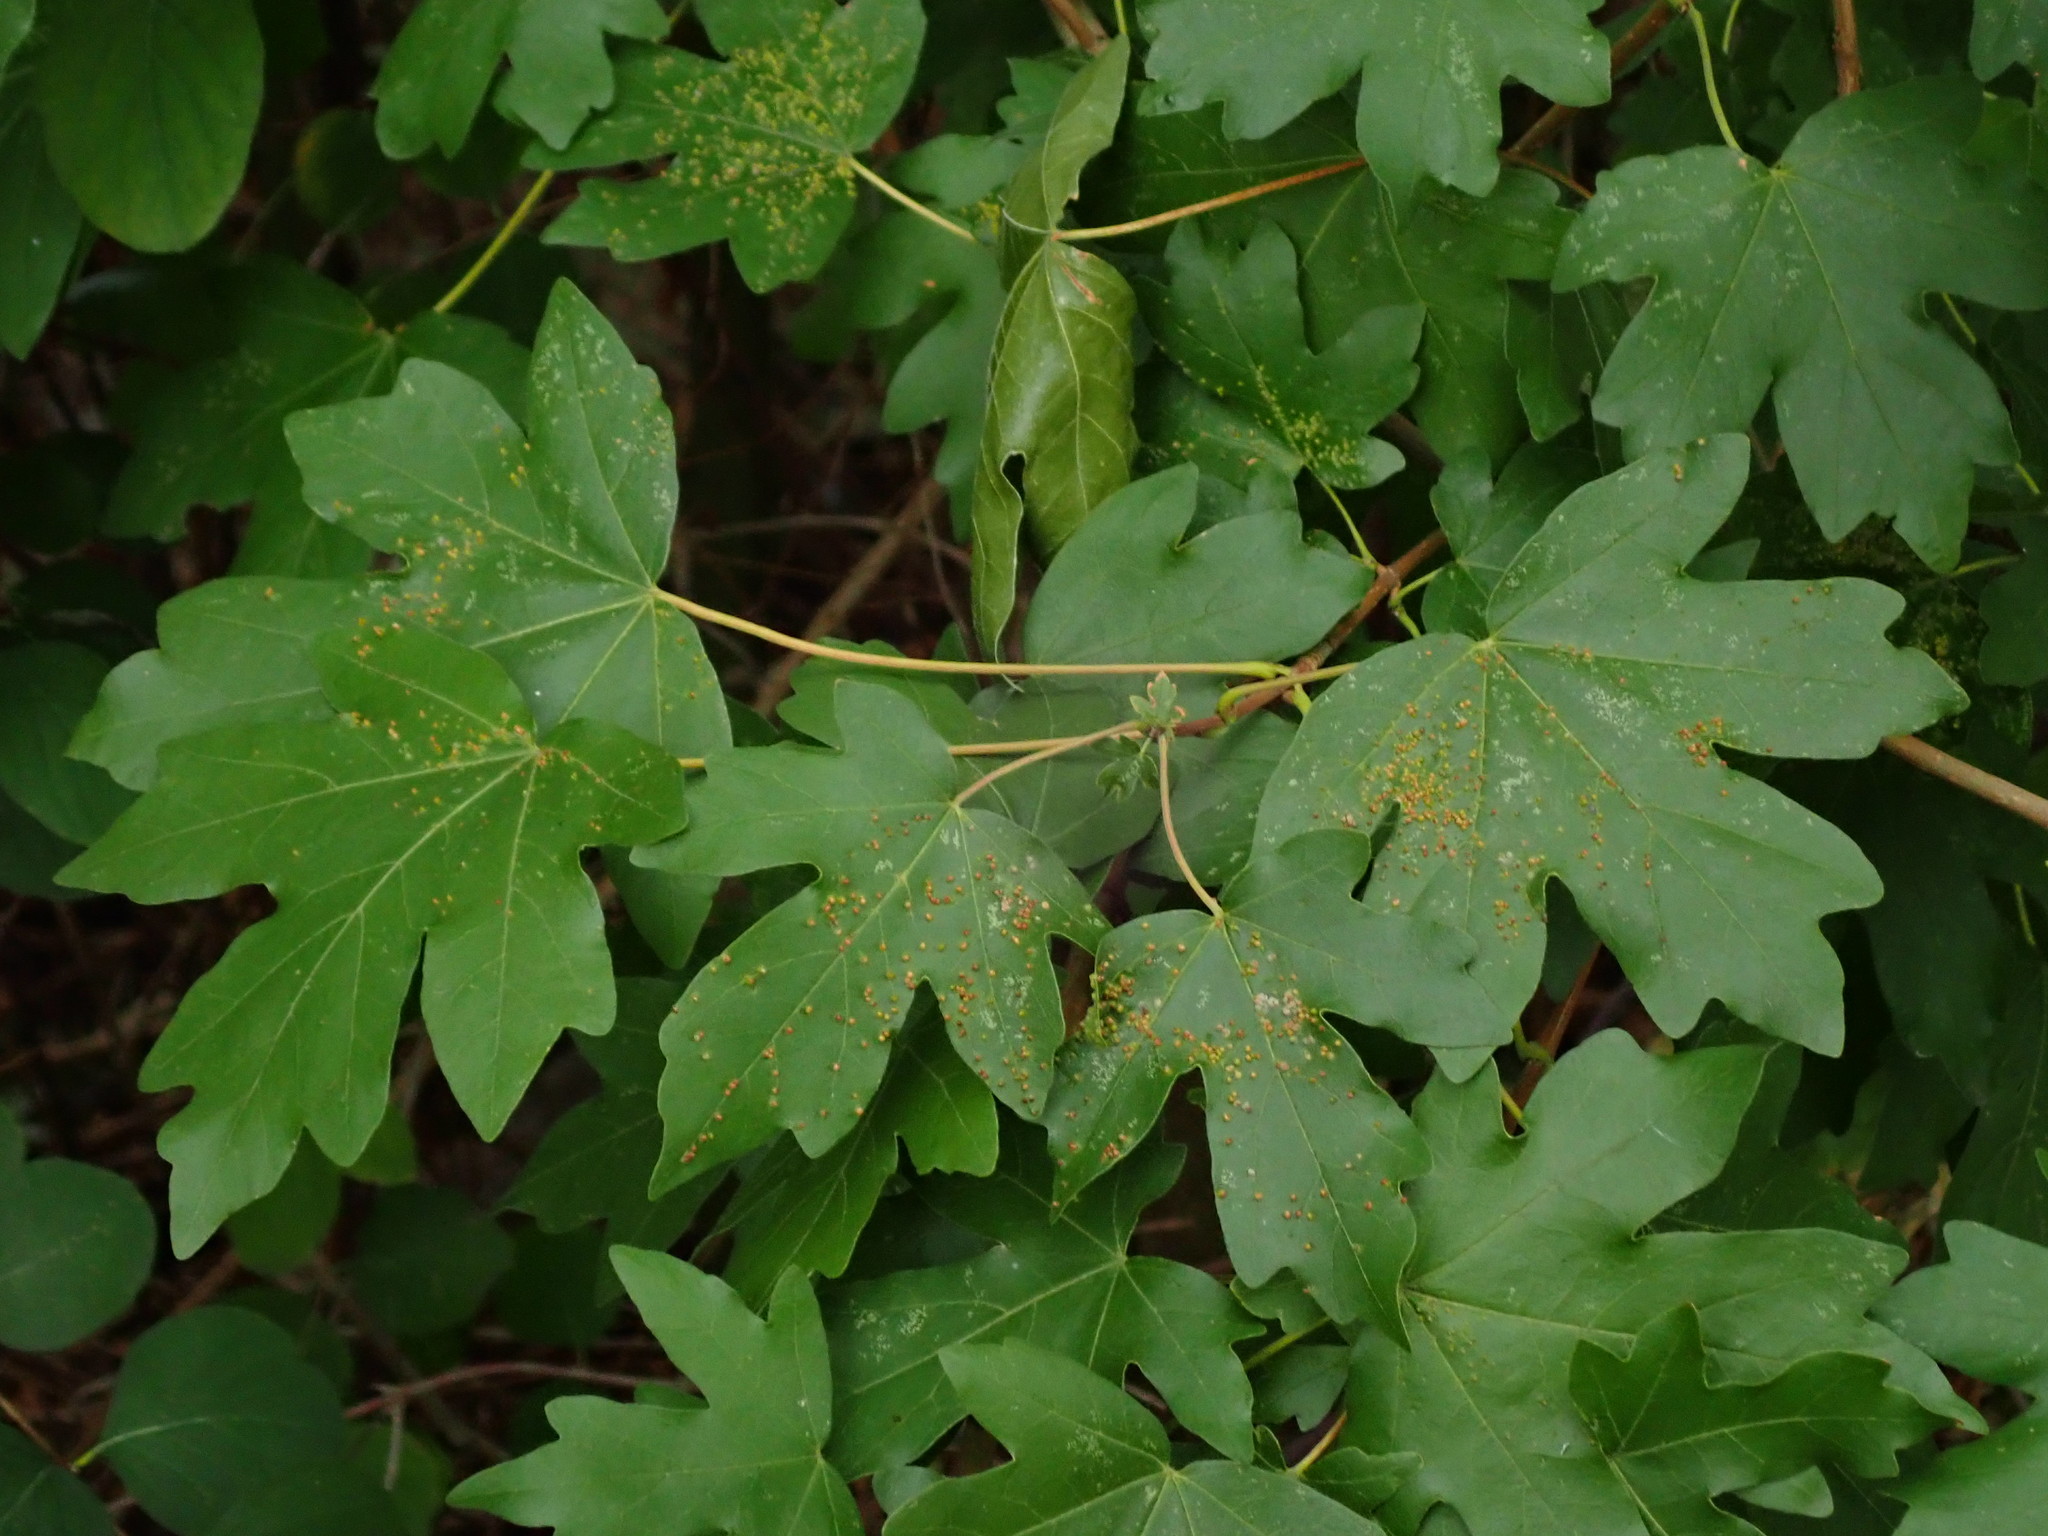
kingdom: Plantae
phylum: Tracheophyta
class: Magnoliopsida
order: Sapindales
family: Sapindaceae
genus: Acer
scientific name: Acer campestre
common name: Field maple
